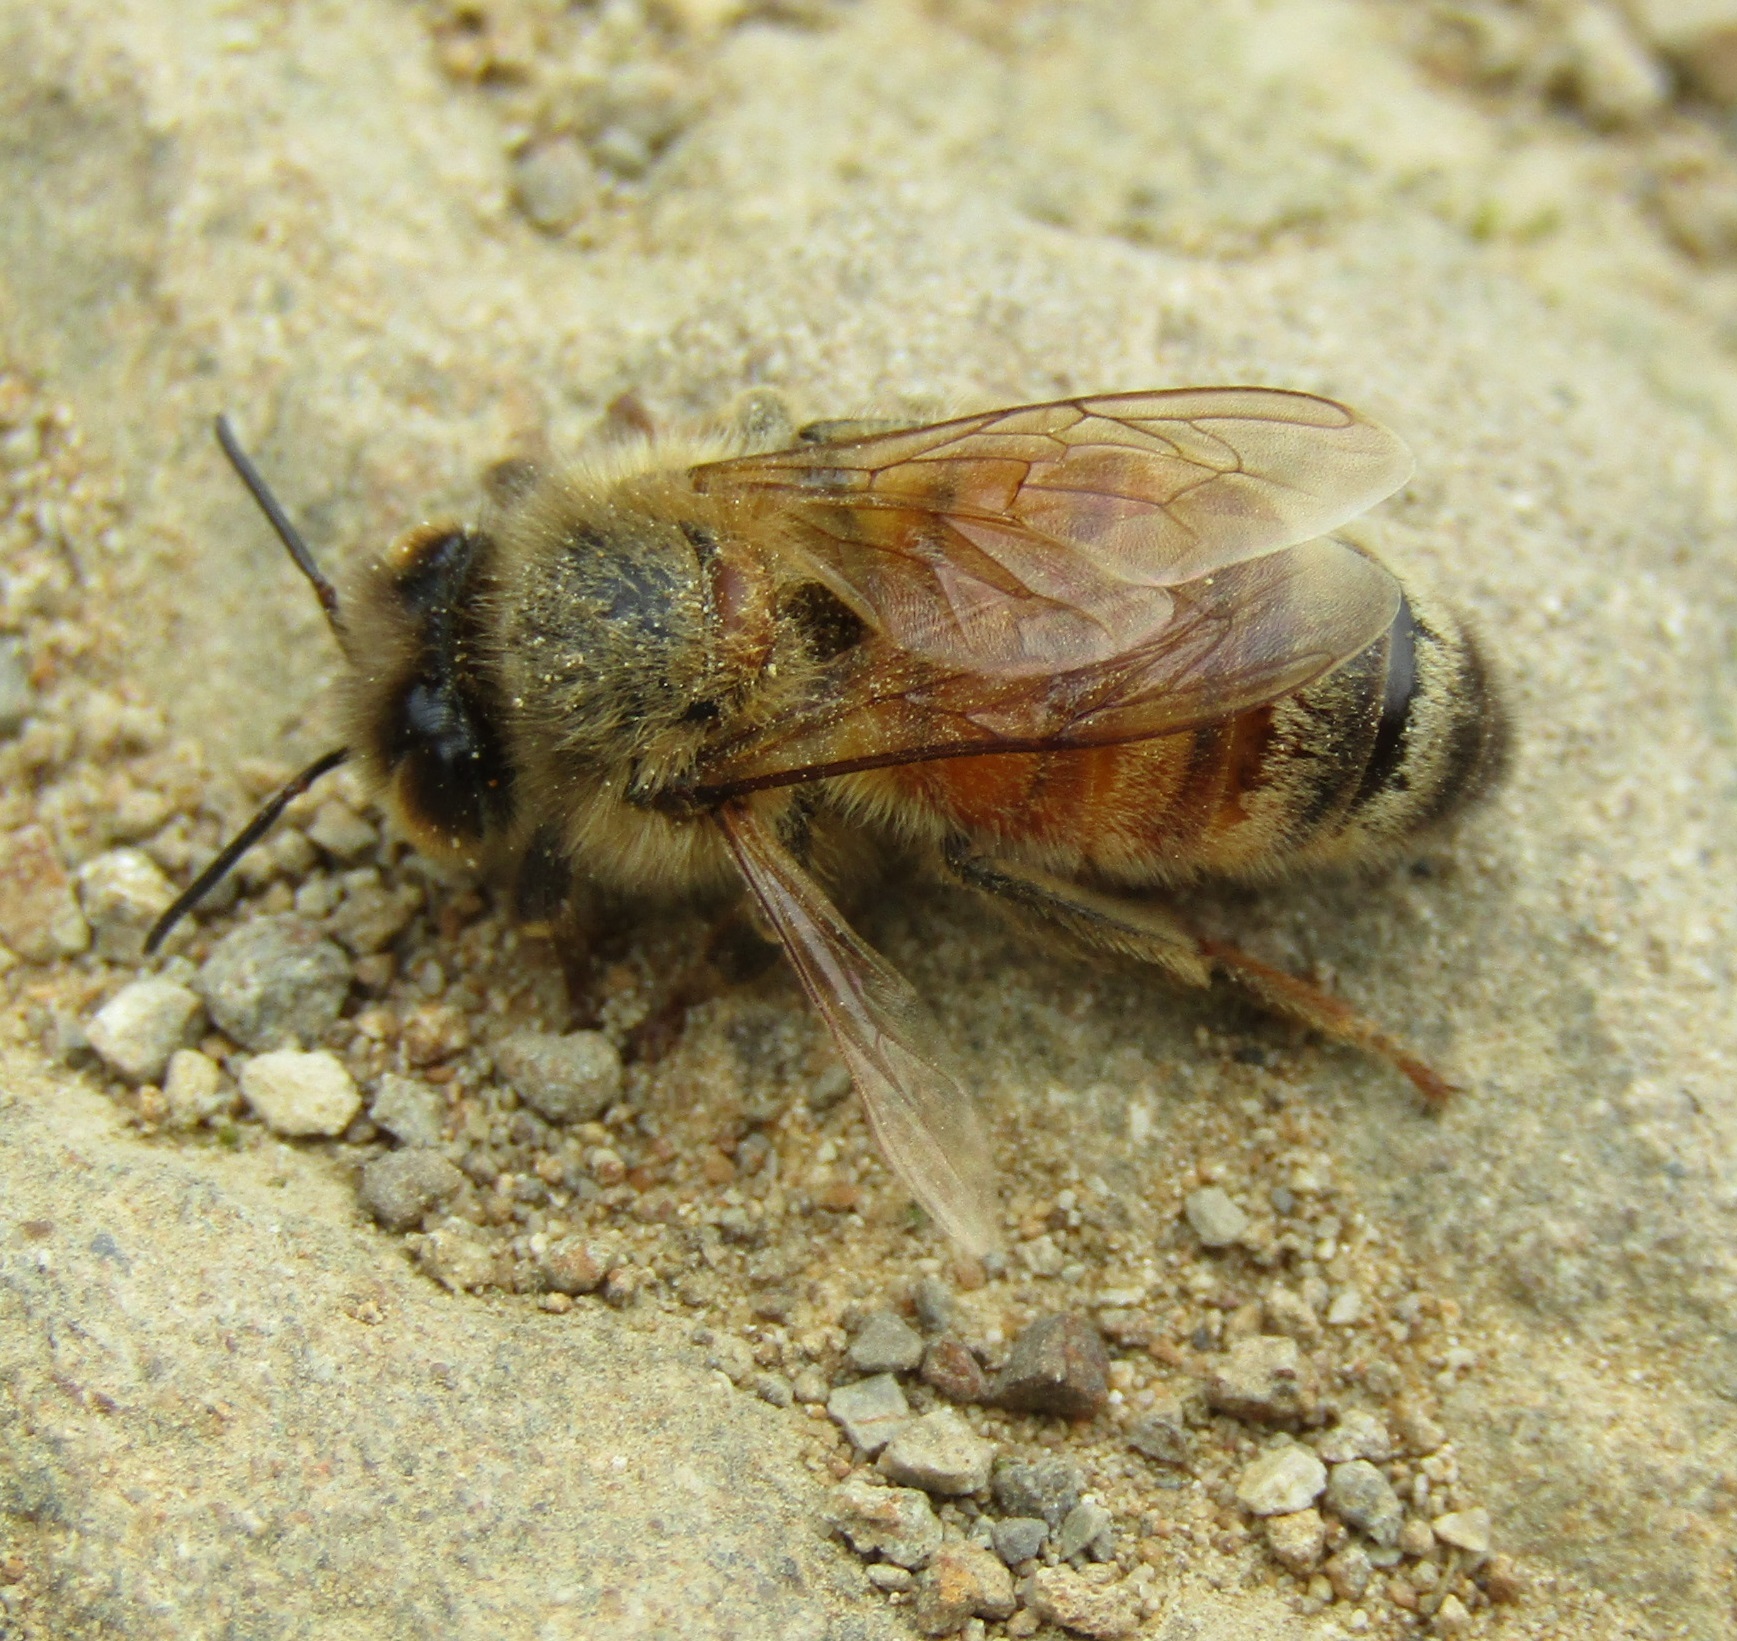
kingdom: Animalia
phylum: Arthropoda
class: Insecta
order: Hymenoptera
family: Apidae
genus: Apis
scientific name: Apis mellifera
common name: Honey bee
